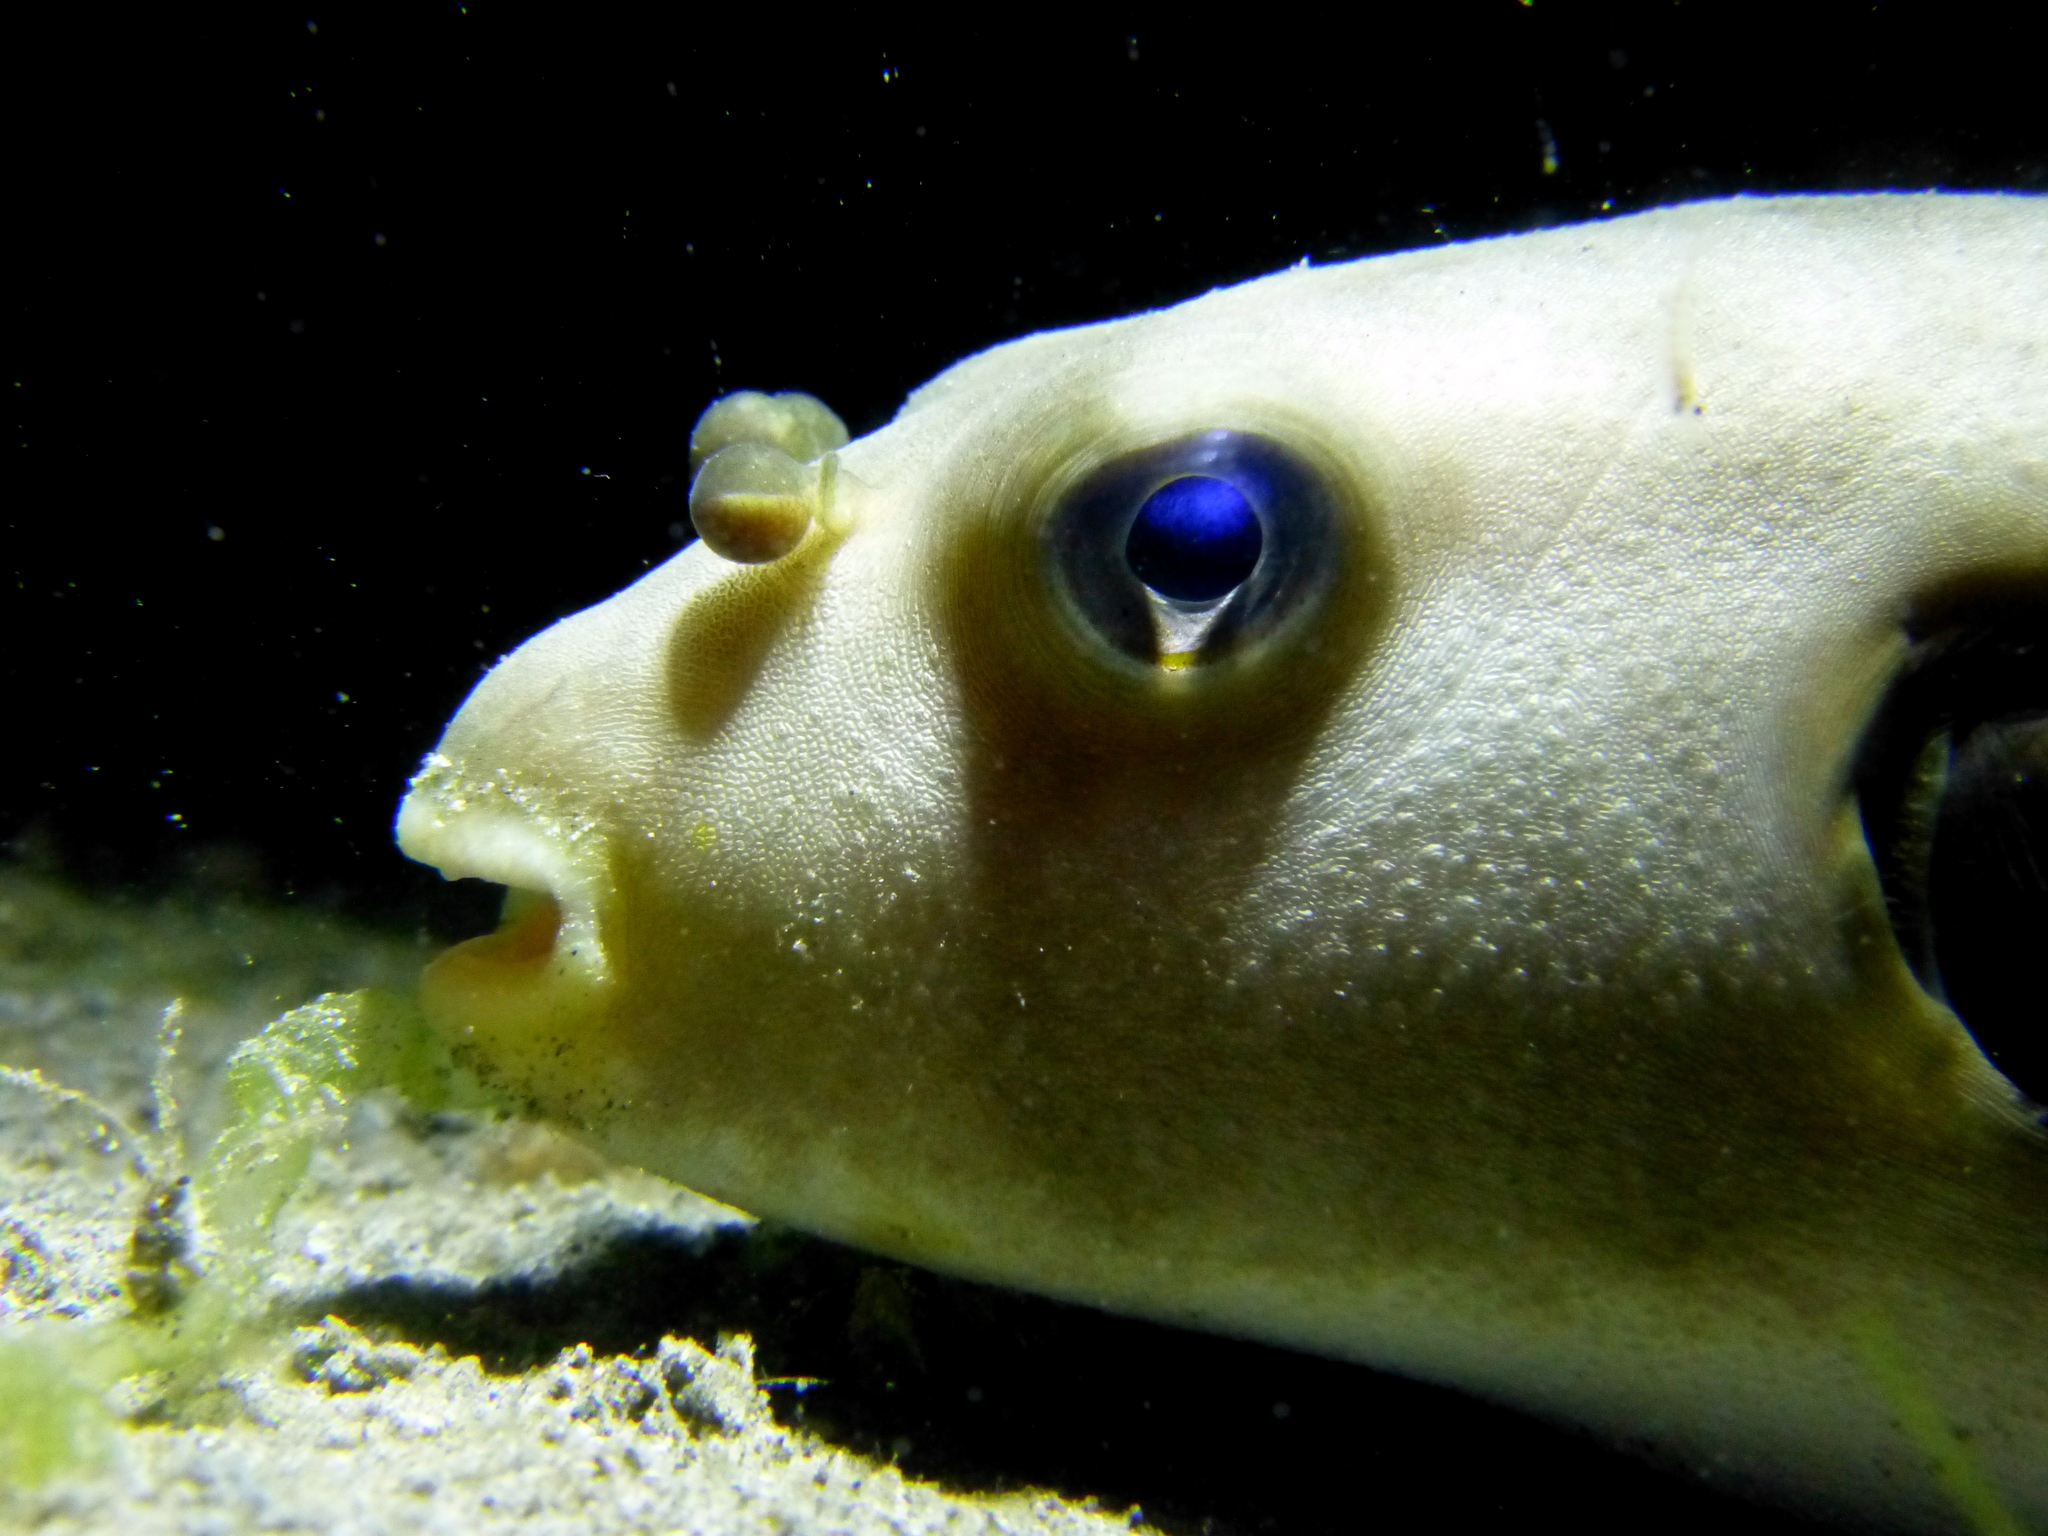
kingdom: Animalia
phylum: Chordata
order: Tetraodontiformes
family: Tetraodontidae
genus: Arothron
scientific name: Arothron immaculatus
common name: Blackedged blaasop
